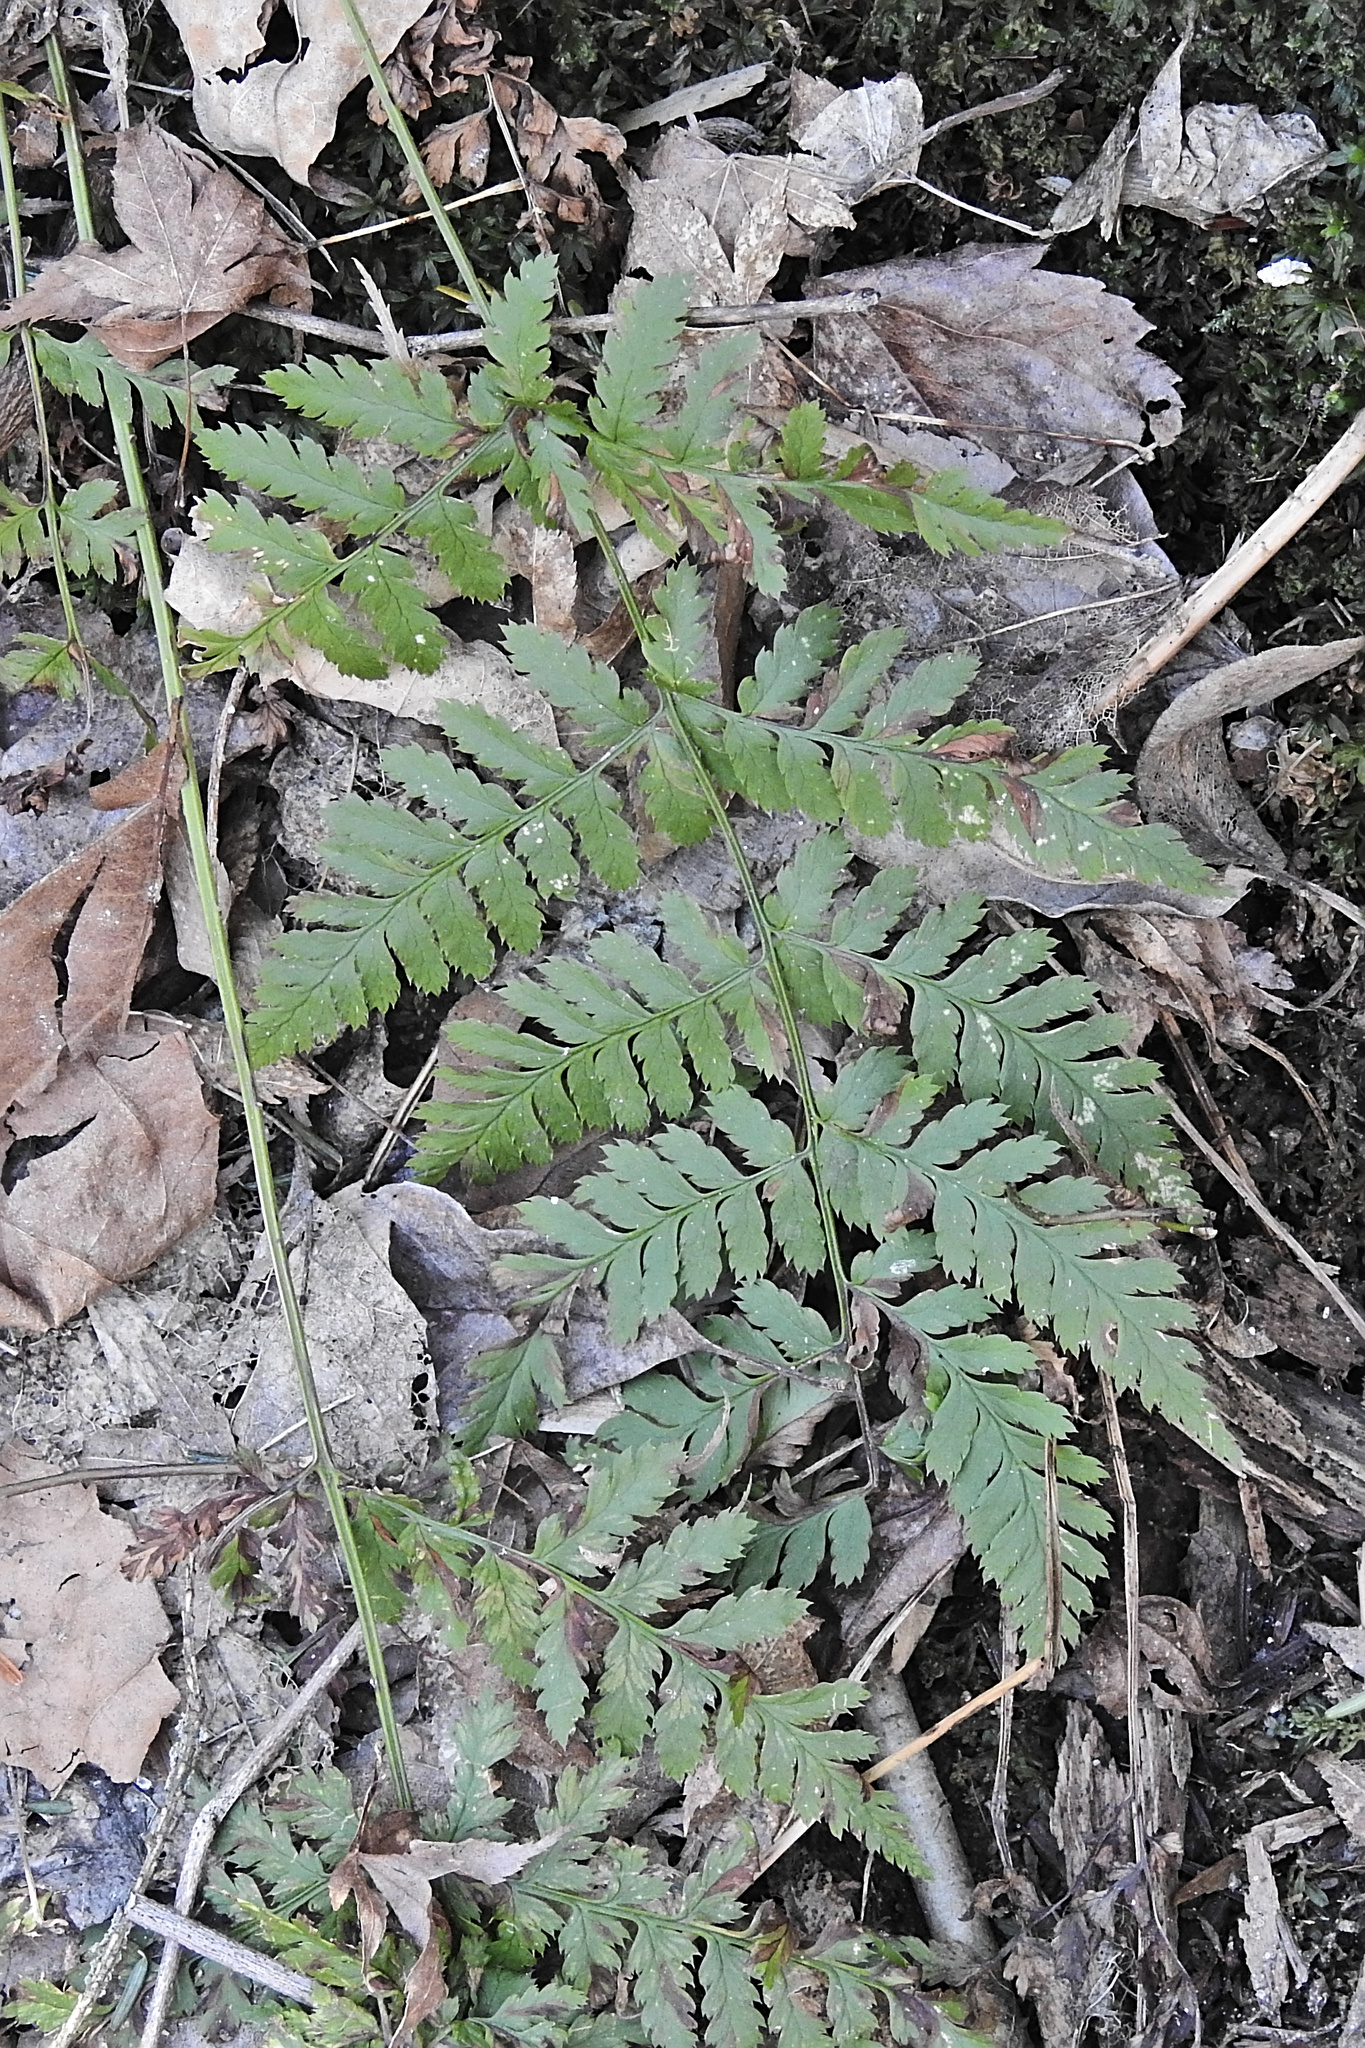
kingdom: Plantae
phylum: Tracheophyta
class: Polypodiopsida
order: Polypodiales
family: Dryopteridaceae
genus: Dryopteris
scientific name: Dryopteris intermedia
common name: Evergreen wood fern
